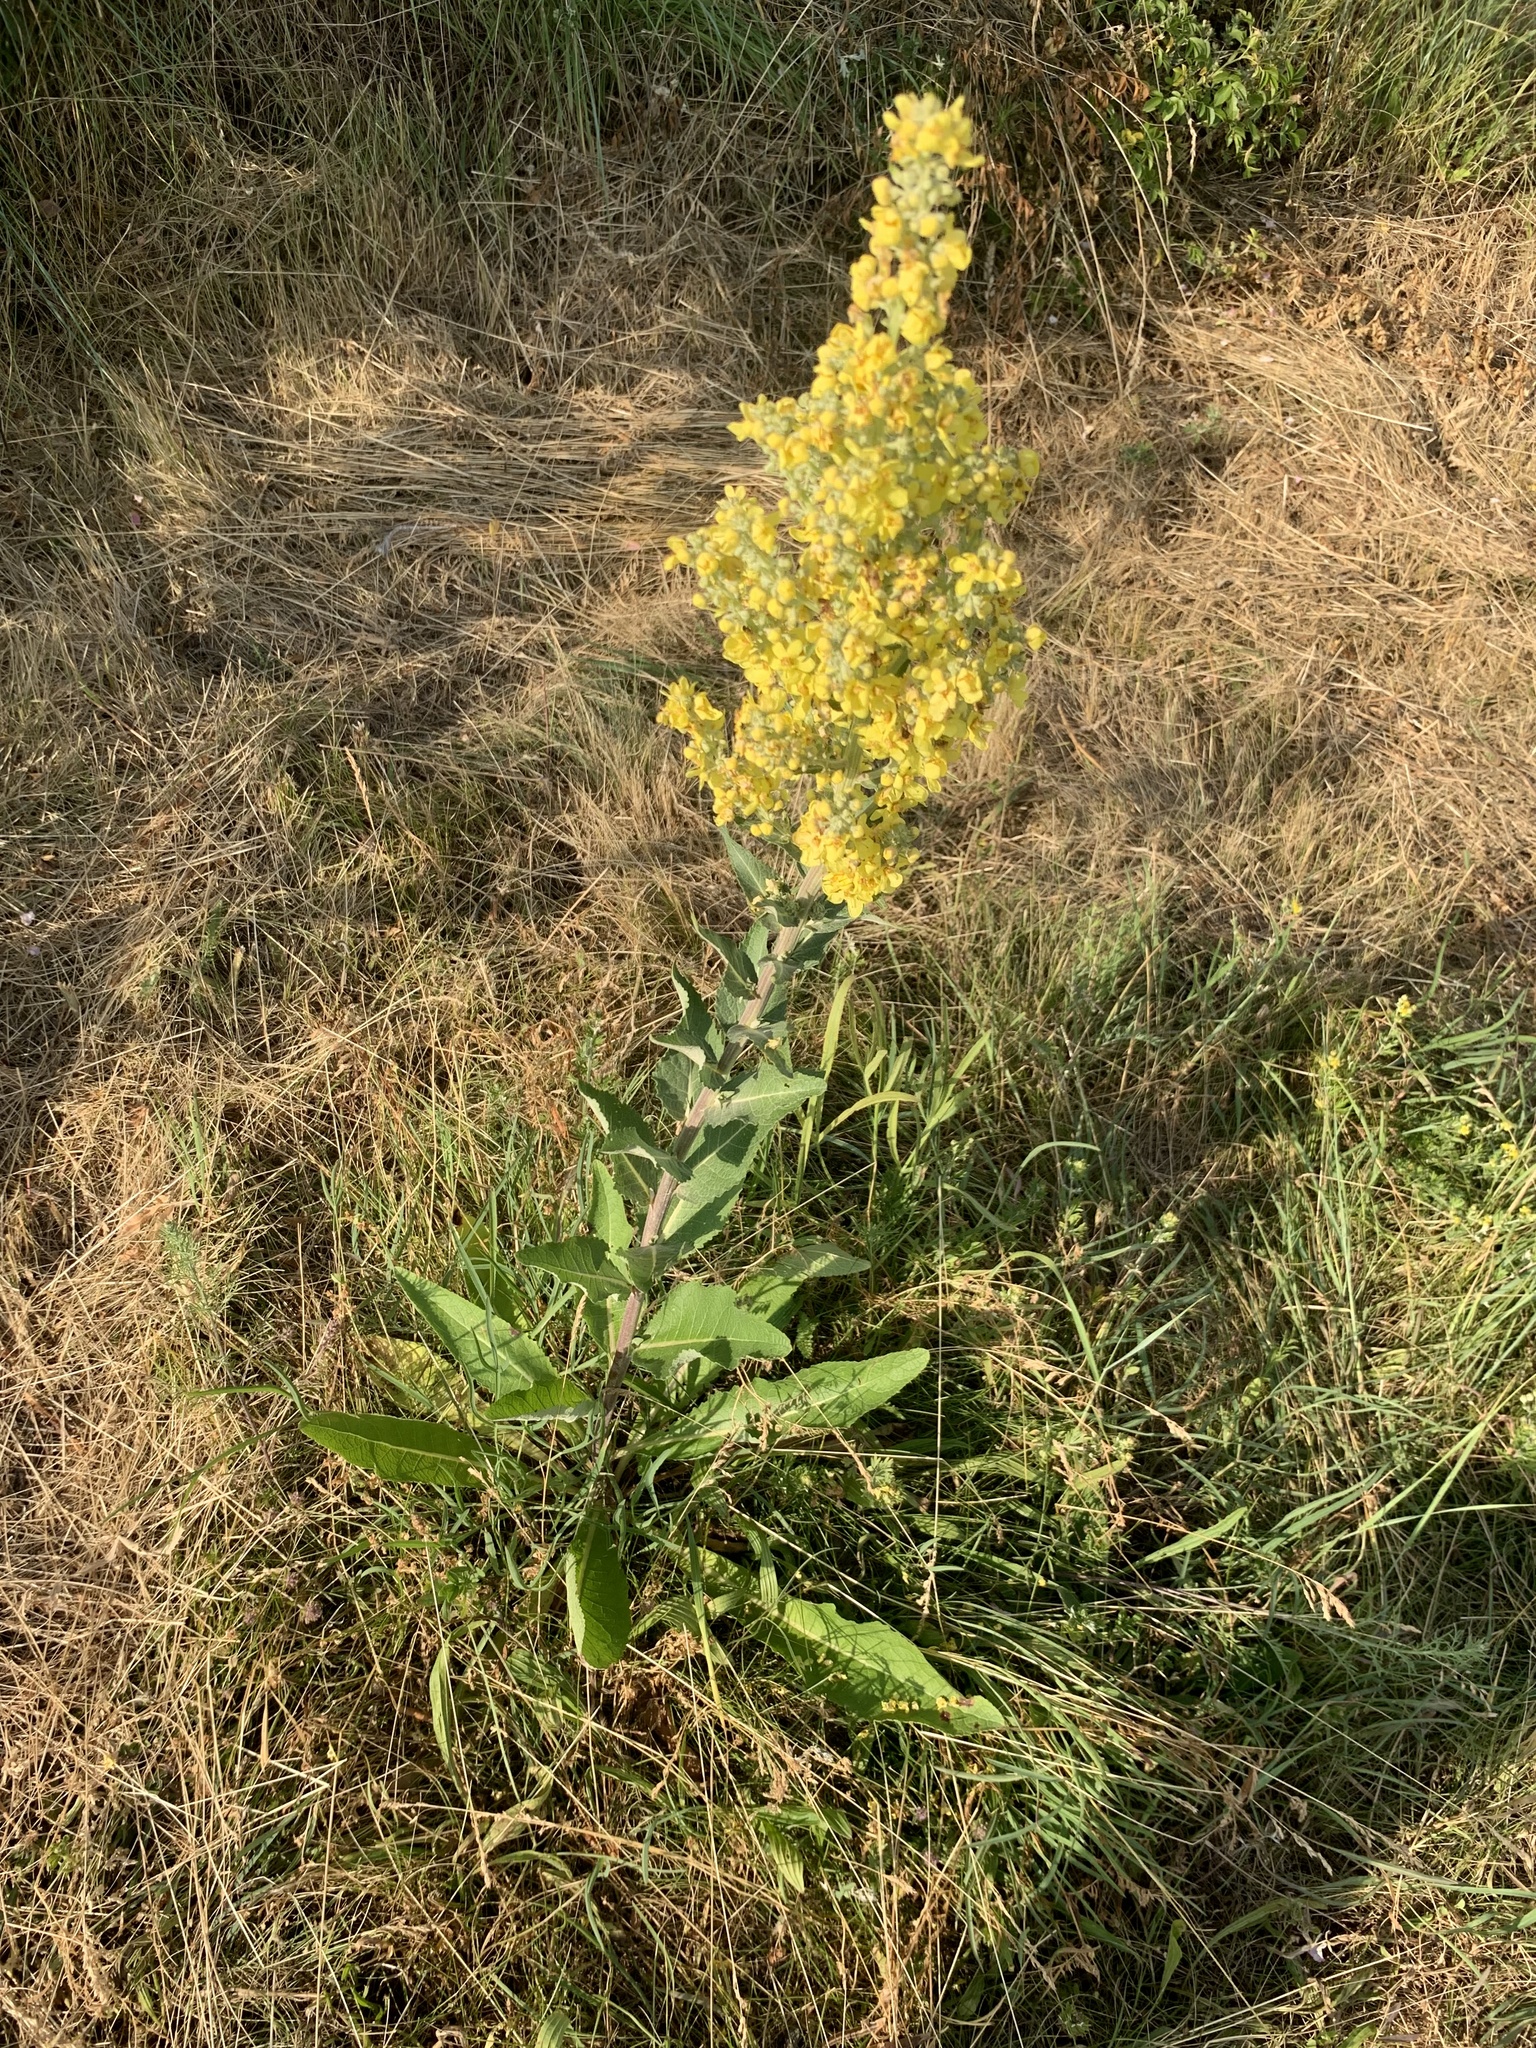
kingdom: Plantae
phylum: Tracheophyta
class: Magnoliopsida
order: Lamiales
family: Scrophulariaceae
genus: Verbascum
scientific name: Verbascum lychnitis
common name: White mullein
